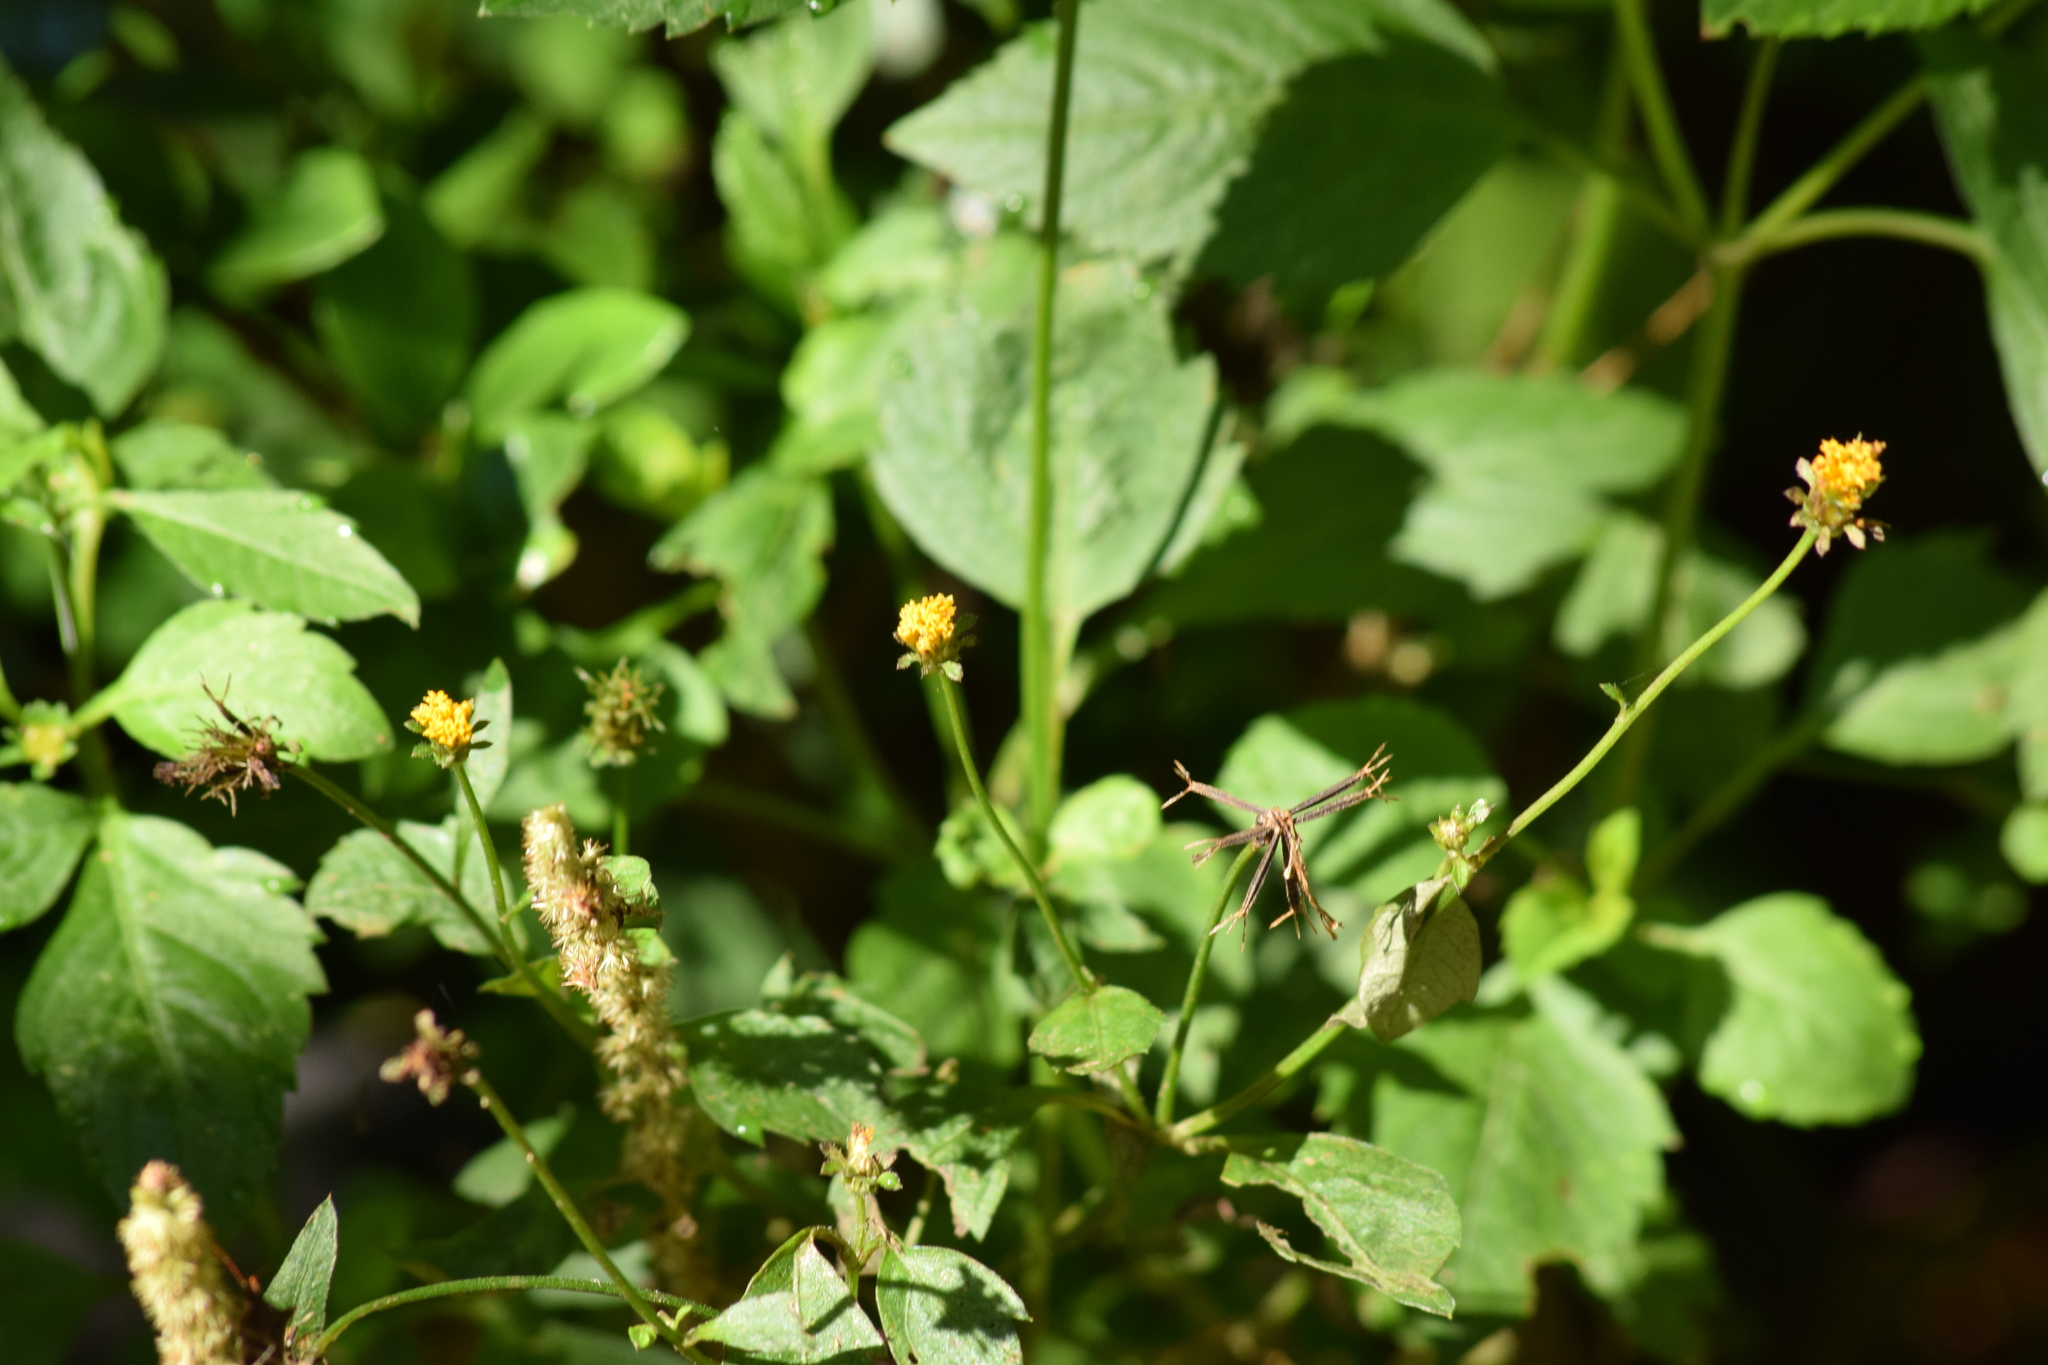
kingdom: Plantae
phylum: Tracheophyta
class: Magnoliopsida
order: Asterales
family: Asteraceae
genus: Bidens
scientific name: Bidens pilosa
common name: Black-jack
